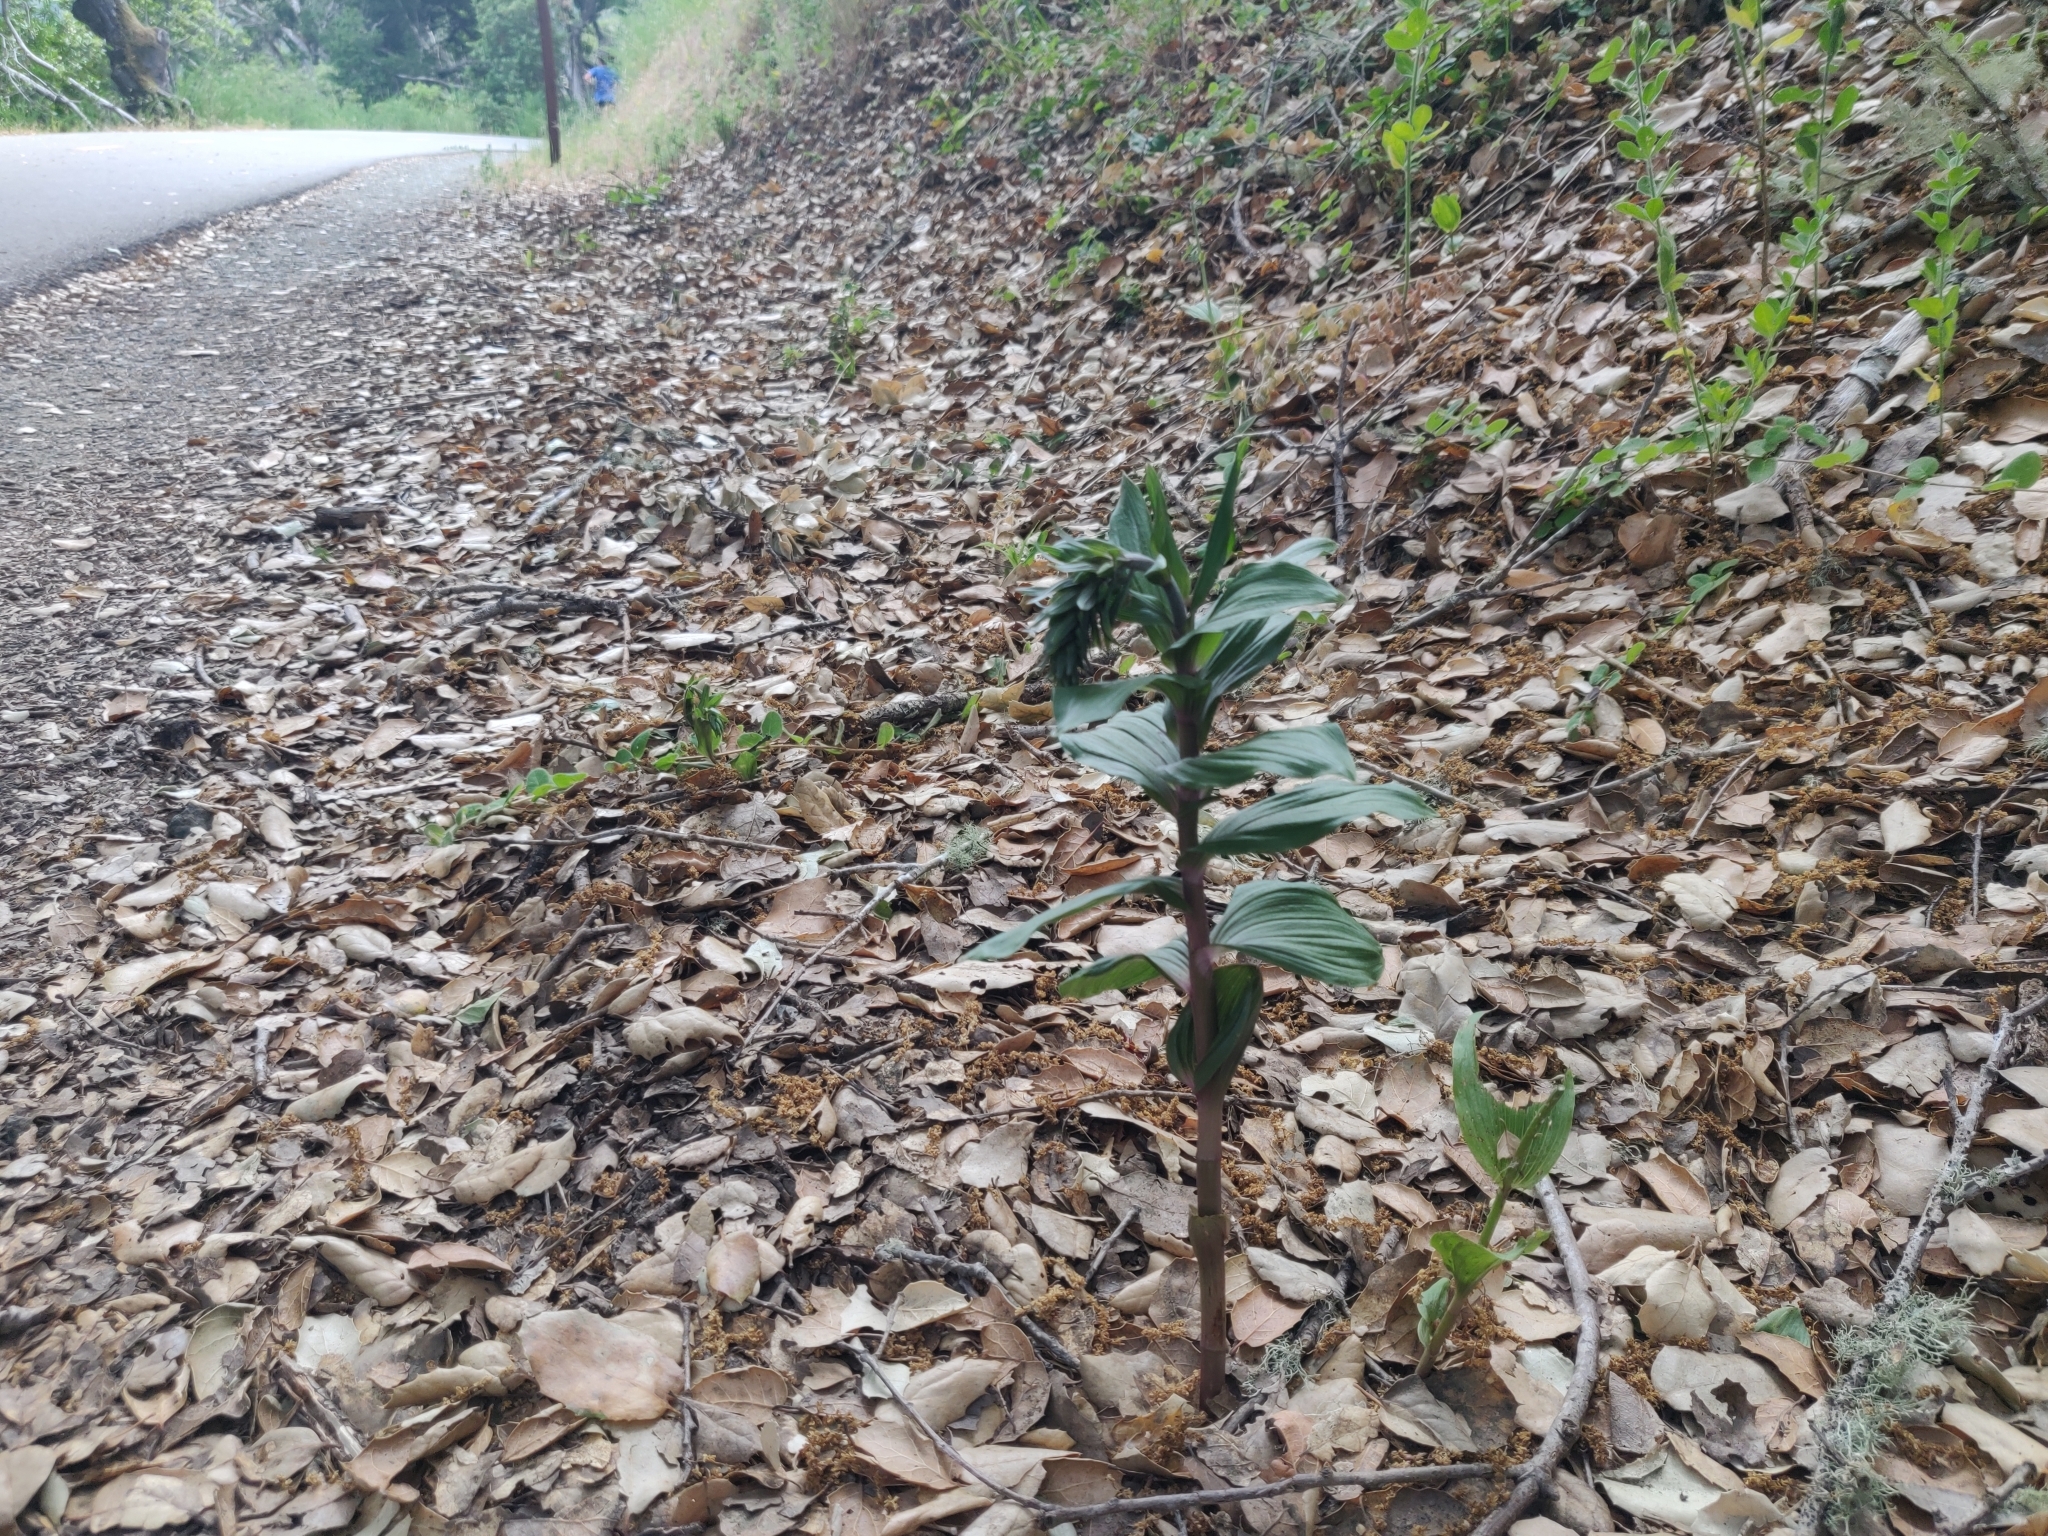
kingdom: Plantae
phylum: Tracheophyta
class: Liliopsida
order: Asparagales
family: Orchidaceae
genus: Epipactis
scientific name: Epipactis helleborine
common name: Broad-leaved helleborine
